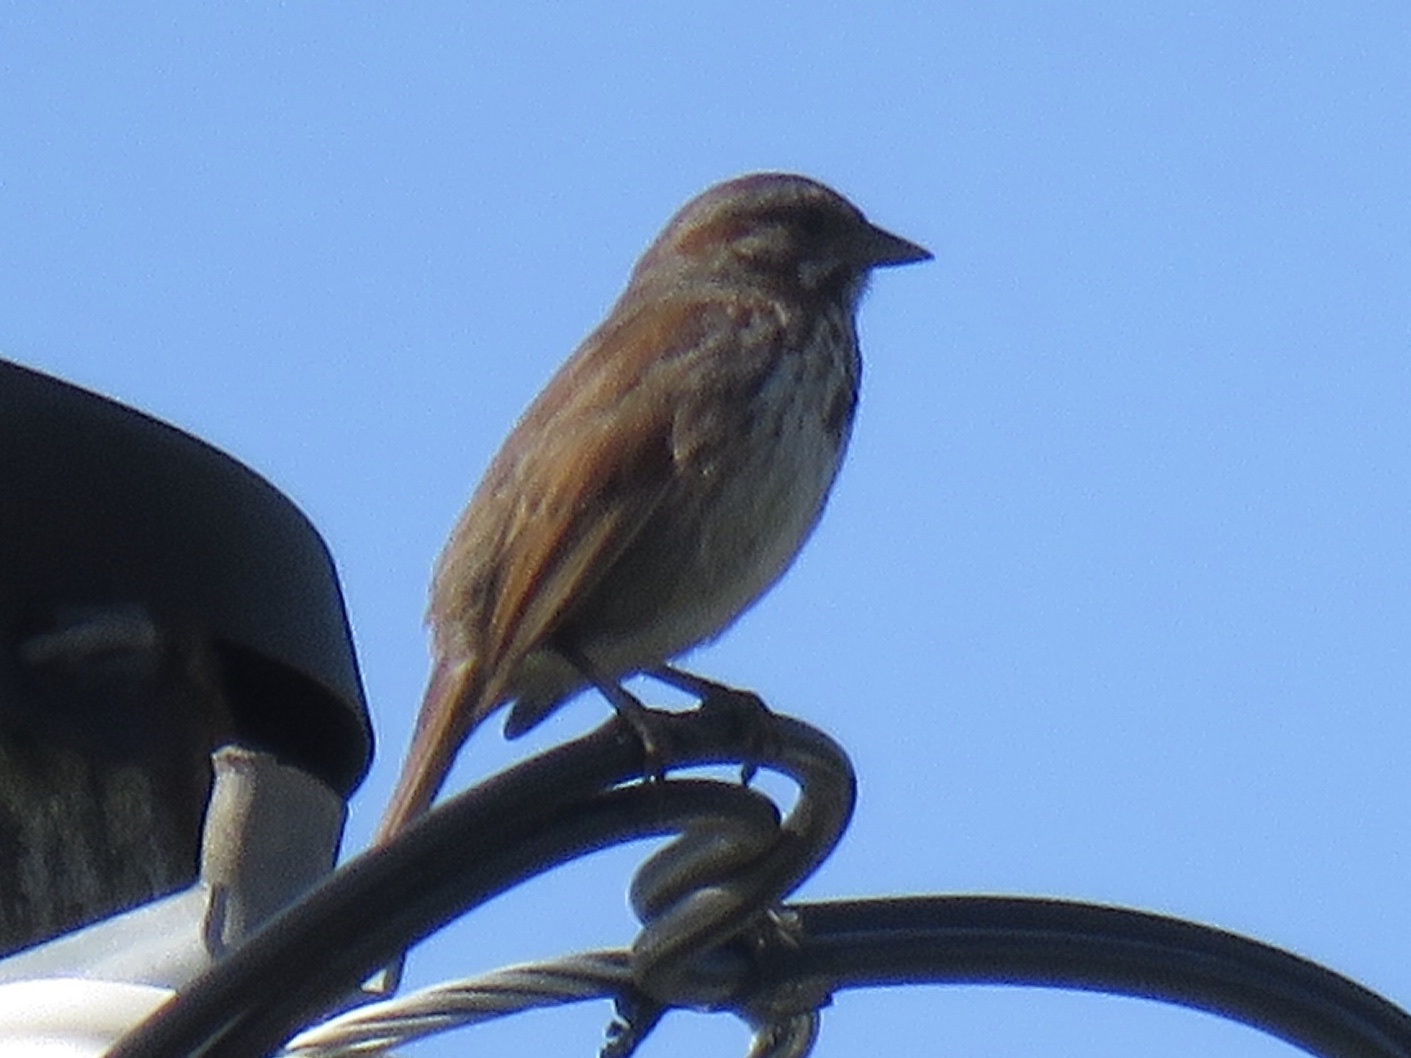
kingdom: Animalia
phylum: Chordata
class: Aves
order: Passeriformes
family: Passerellidae
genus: Melospiza
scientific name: Melospiza melodia
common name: Song sparrow
